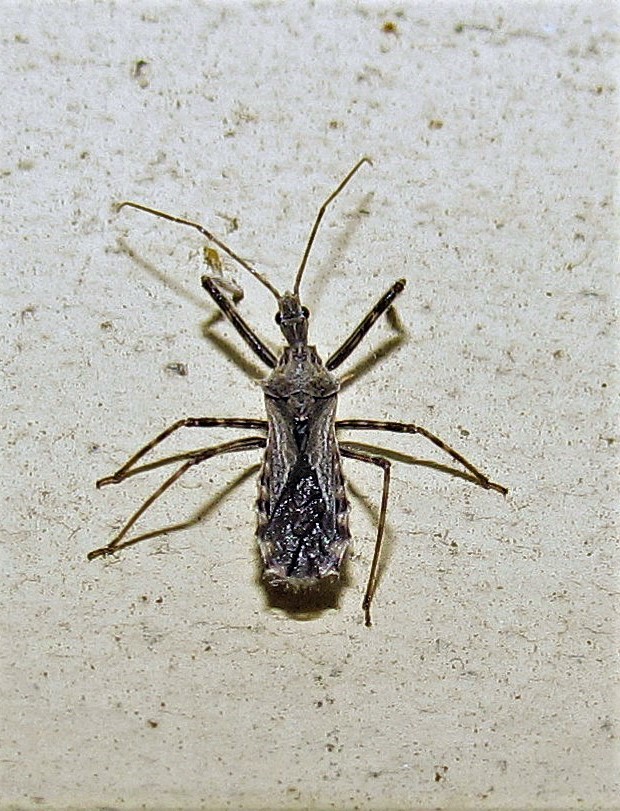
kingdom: Animalia
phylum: Arthropoda
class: Insecta
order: Hemiptera
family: Reduviidae
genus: Atrachelus
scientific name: Atrachelus cinereus
